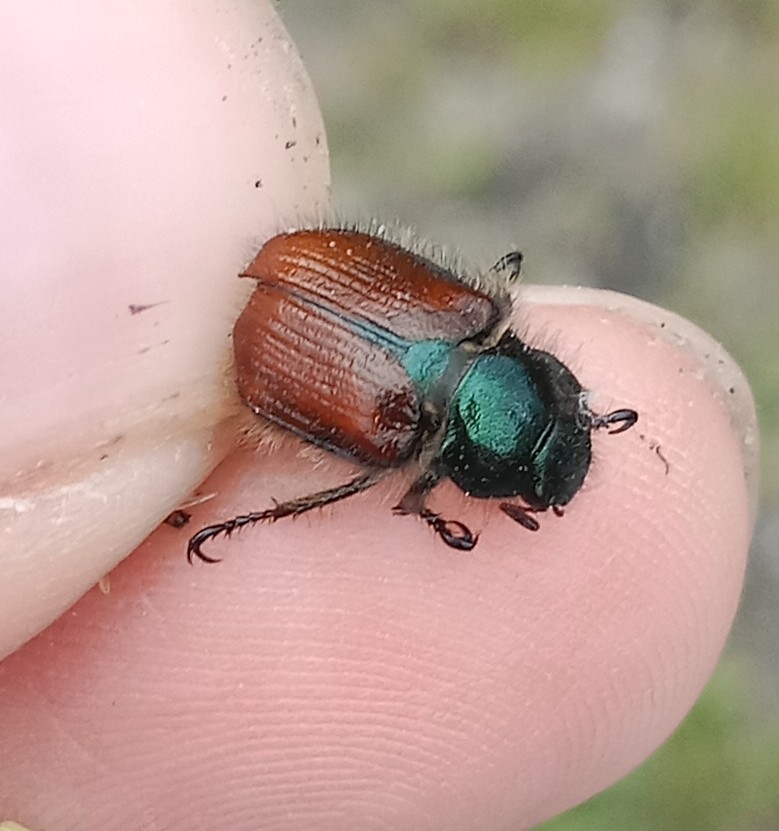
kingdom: Animalia
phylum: Arthropoda
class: Insecta
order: Coleoptera
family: Scarabaeidae
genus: Phyllopertha
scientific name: Phyllopertha horticola
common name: Garden chafer
